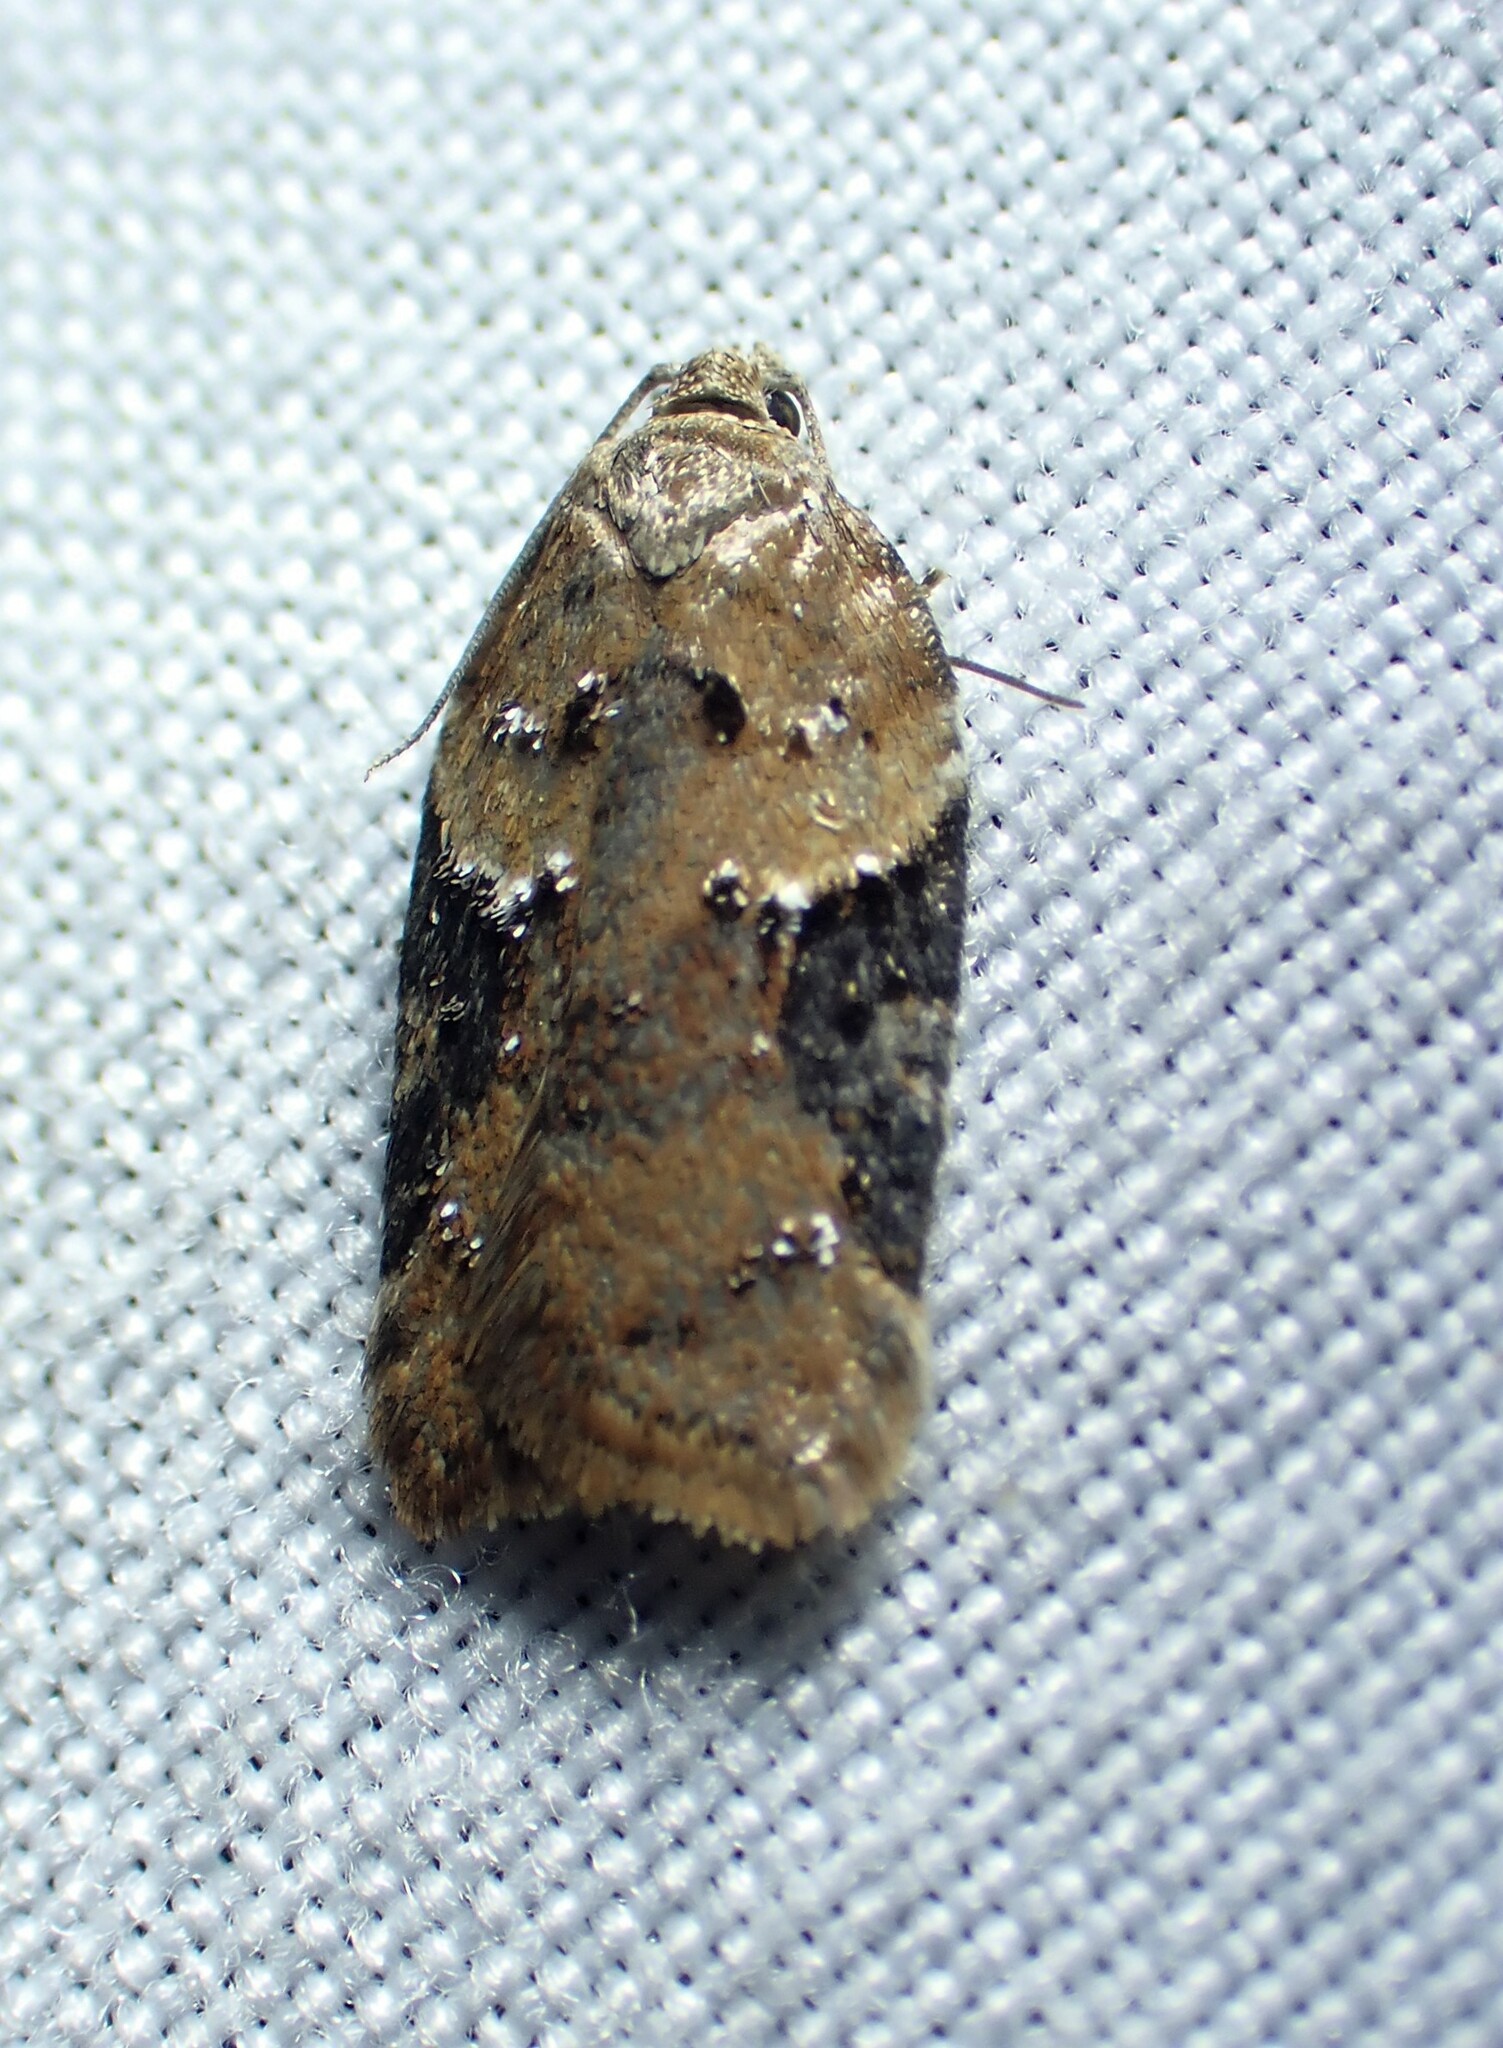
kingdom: Animalia
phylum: Arthropoda
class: Insecta
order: Lepidoptera
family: Tortricidae
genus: Acleris
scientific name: Acleris braunana
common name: Alder leafroller
